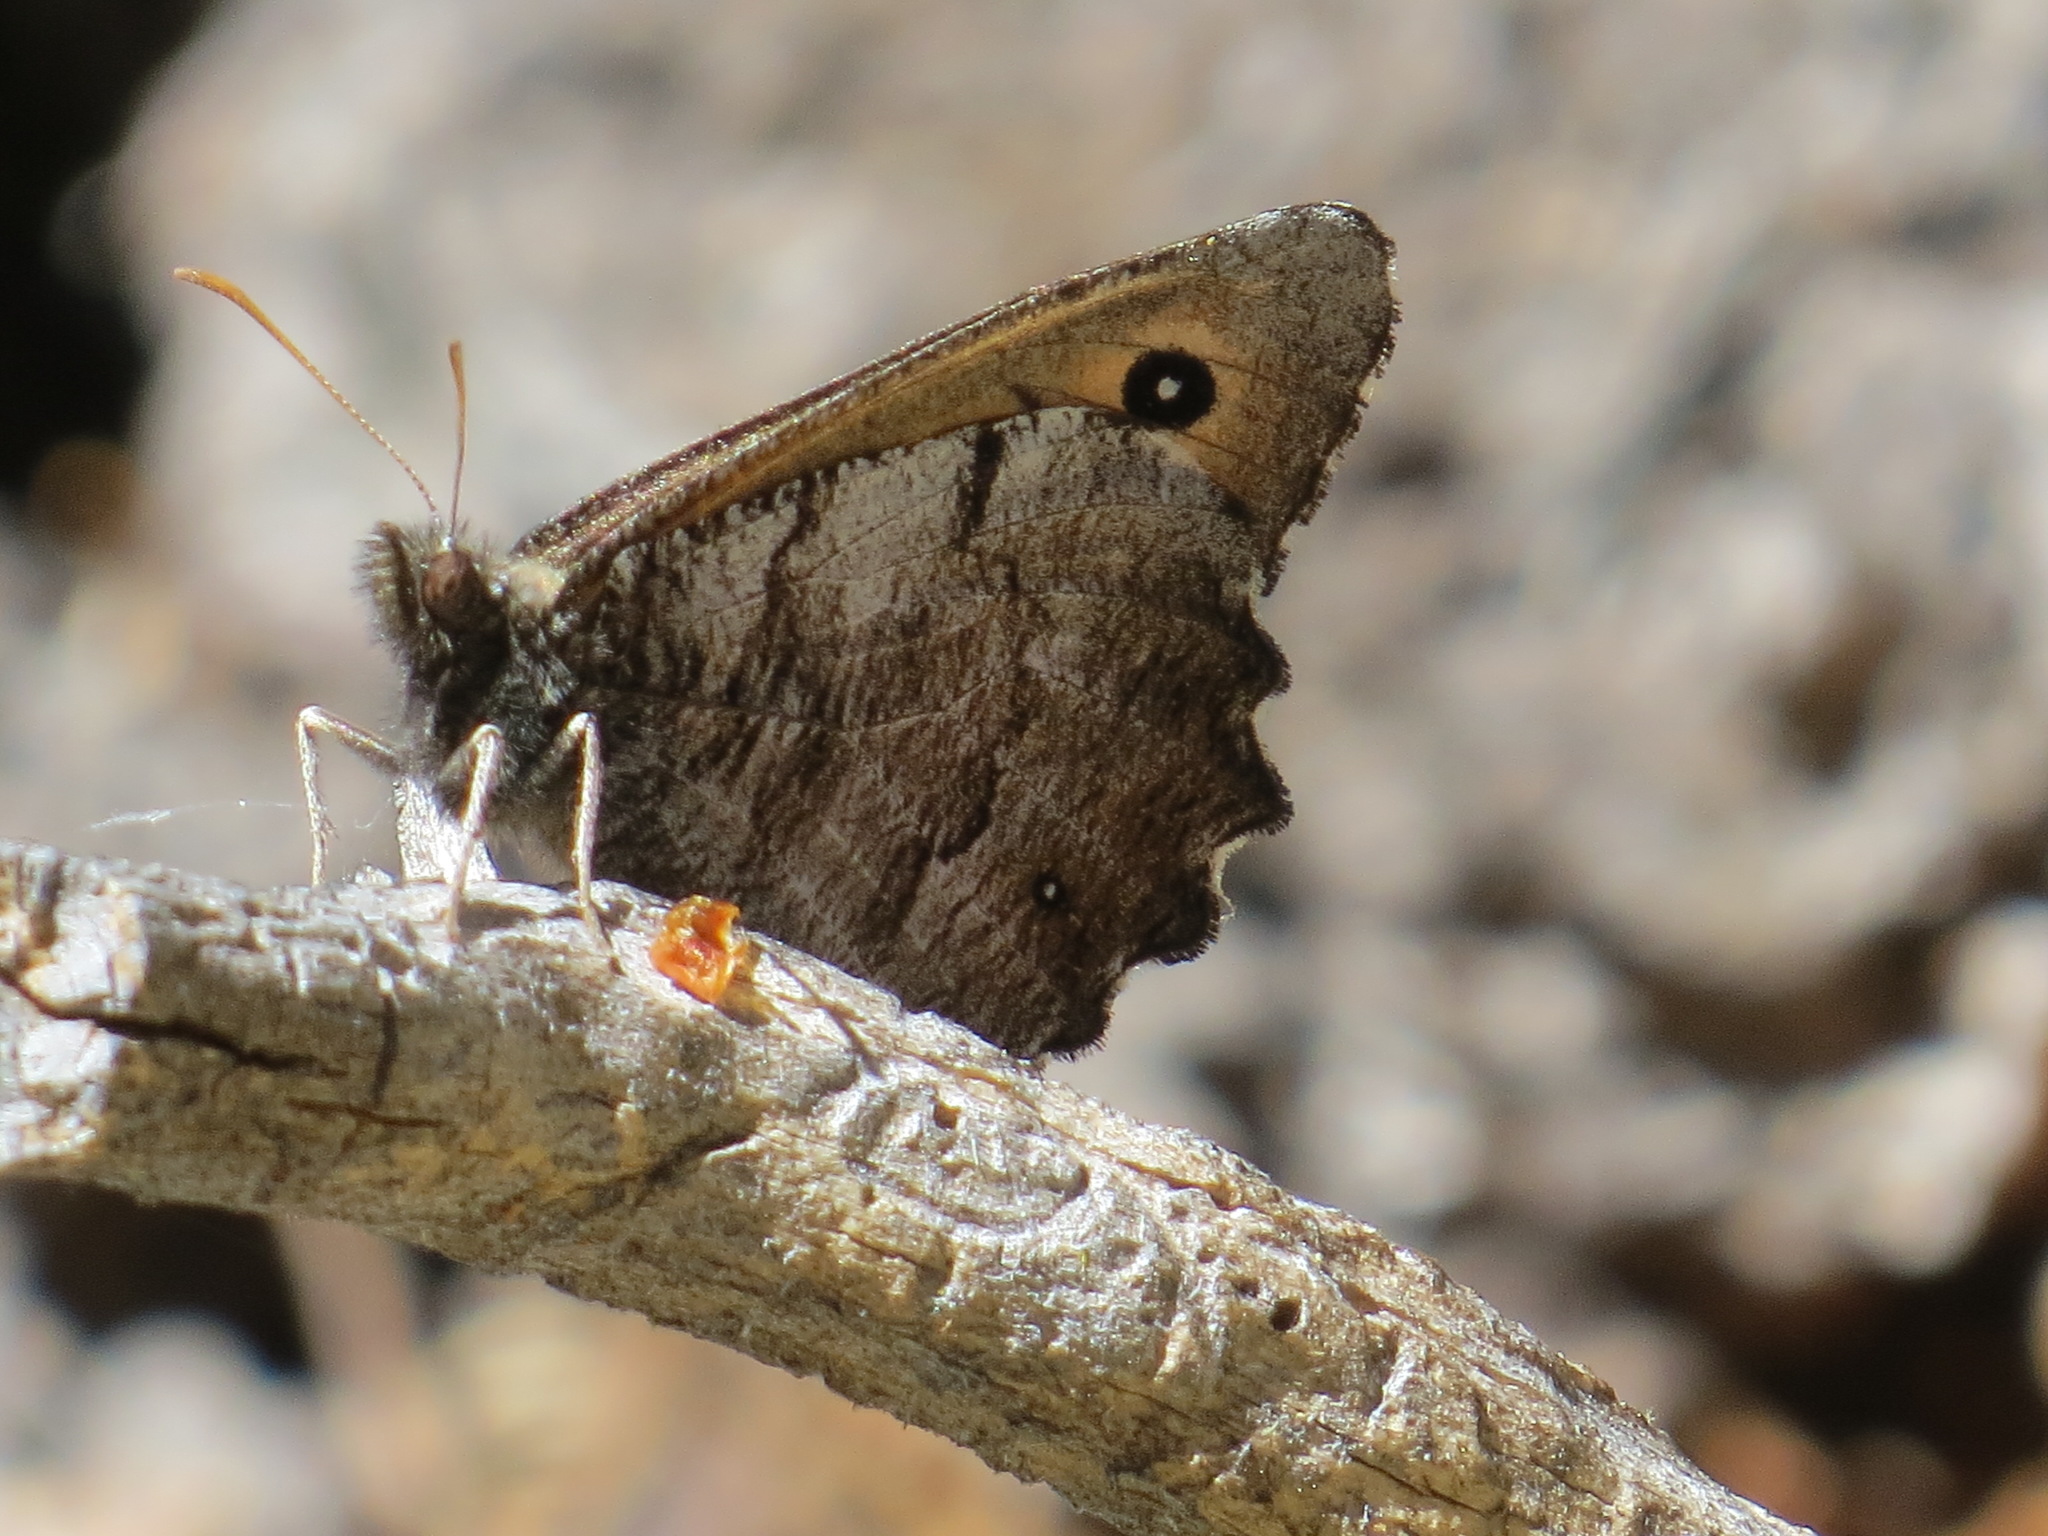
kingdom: Animalia
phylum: Arthropoda
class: Insecta
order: Lepidoptera
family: Nymphalidae
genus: Oeneis
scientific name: Oeneis nevadensis
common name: Great arctic
